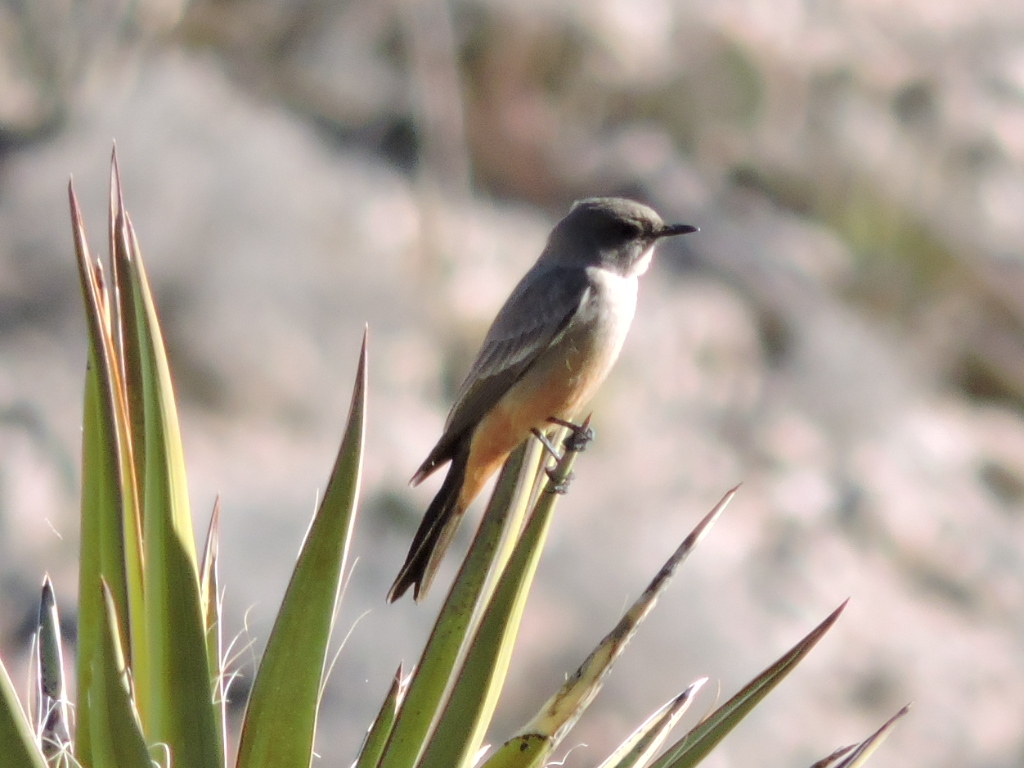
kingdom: Animalia
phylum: Chordata
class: Aves
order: Passeriformes
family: Tyrannidae
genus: Sayornis
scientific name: Sayornis saya
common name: Say's phoebe
